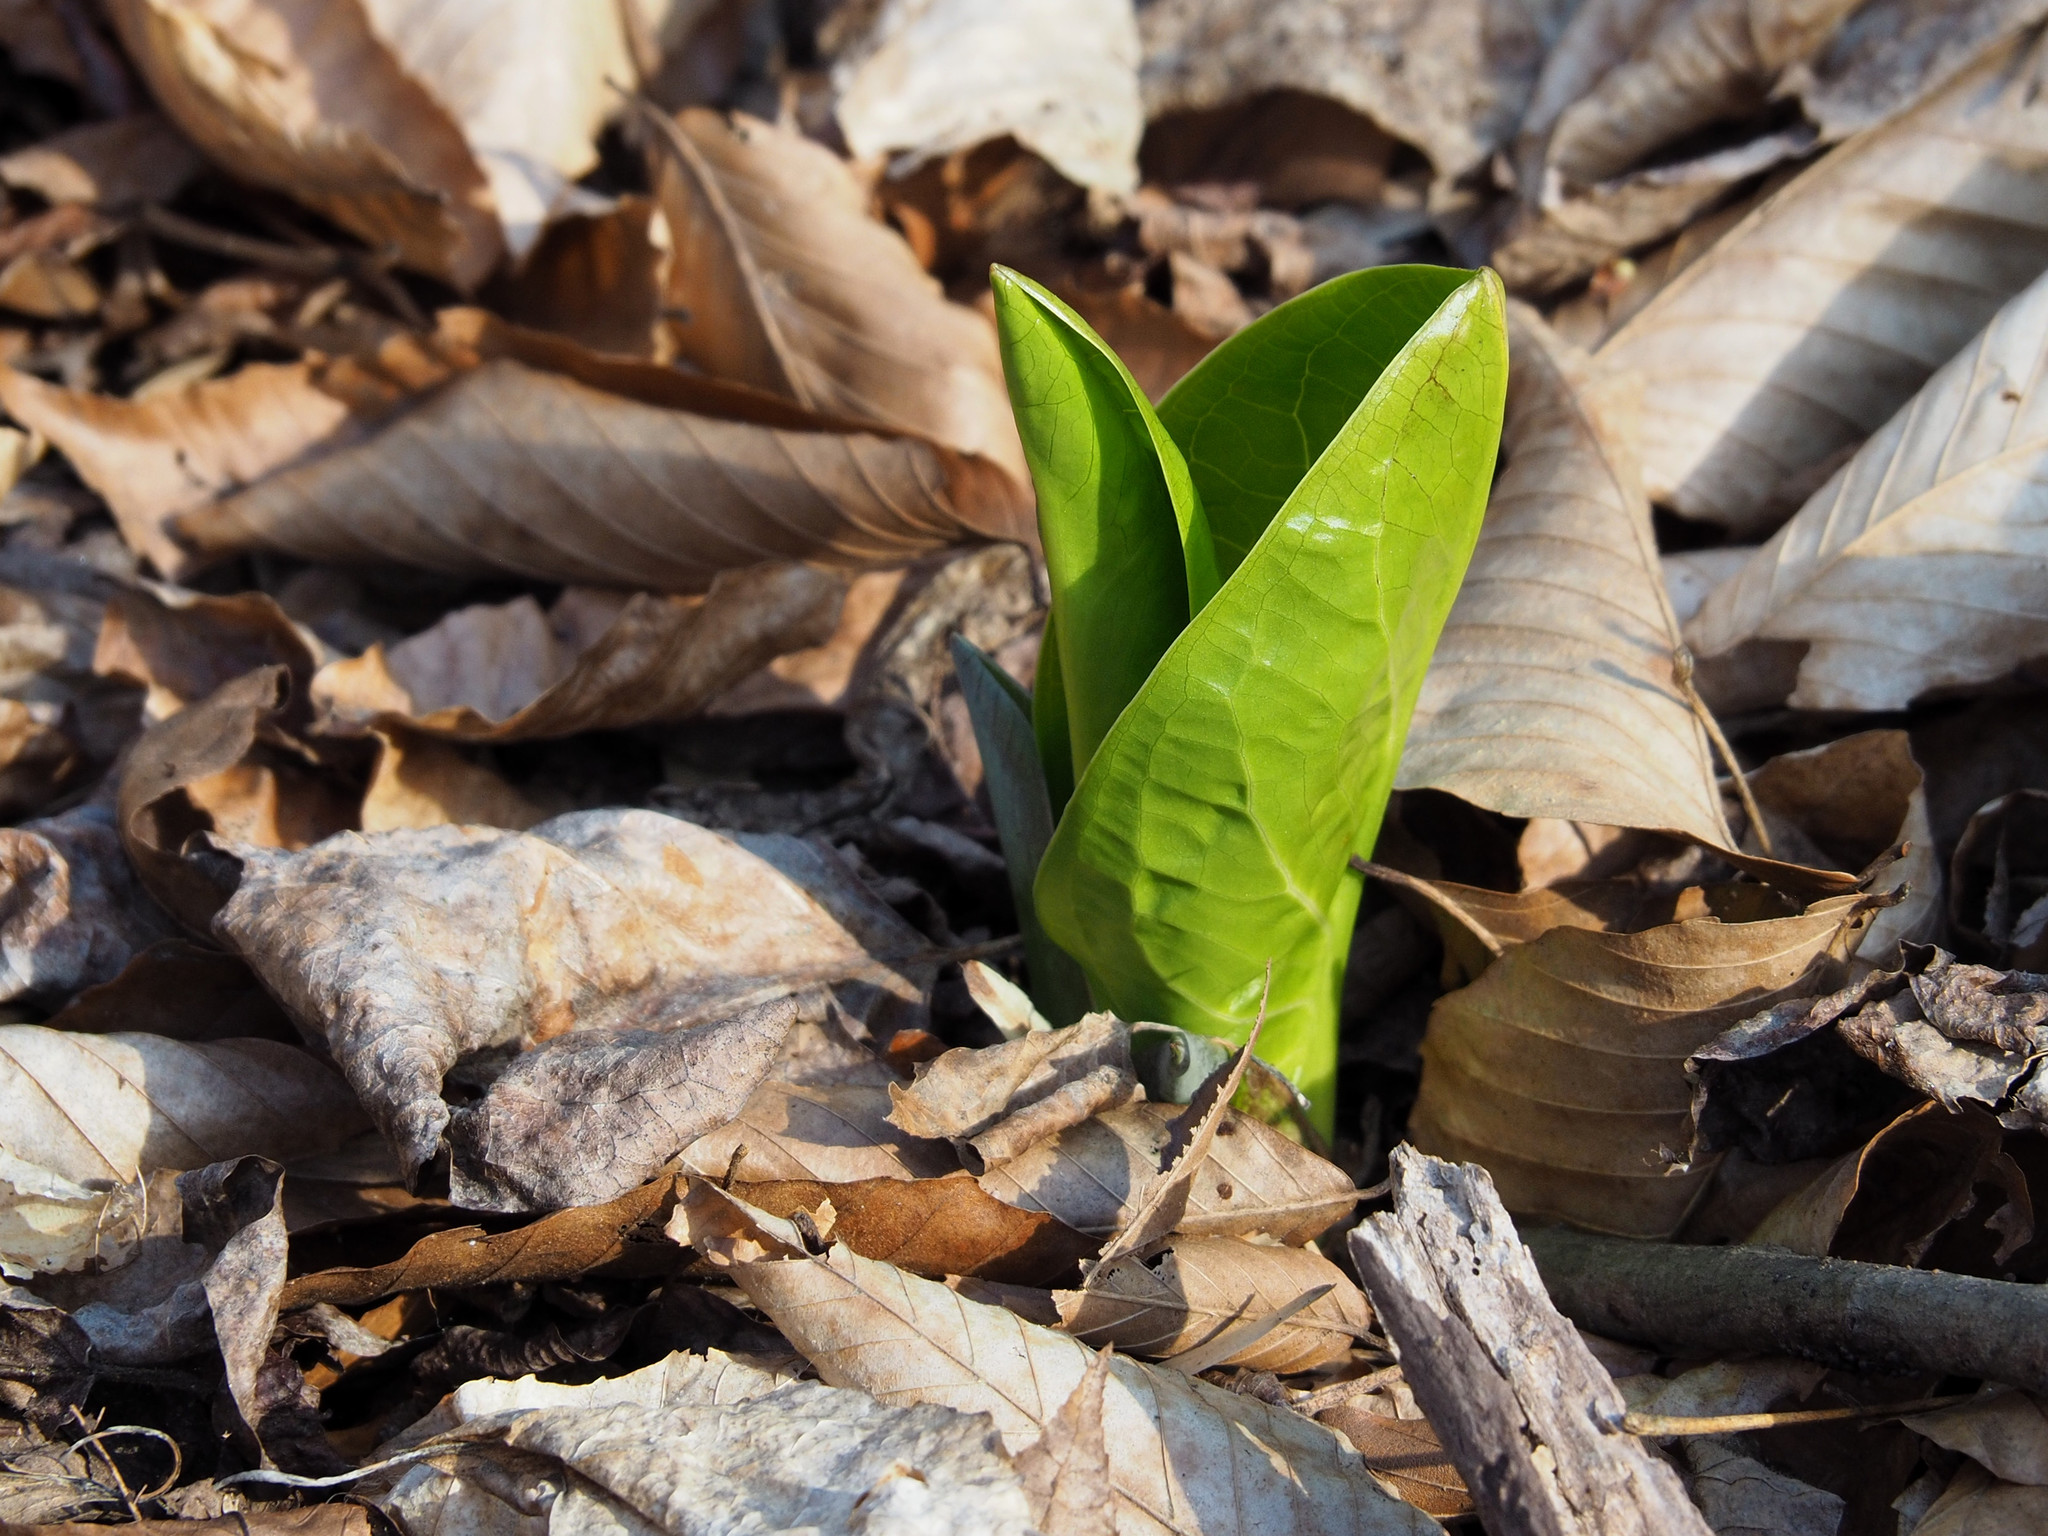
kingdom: Plantae
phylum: Tracheophyta
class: Liliopsida
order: Alismatales
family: Araceae
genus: Symplocarpus
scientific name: Symplocarpus foetidus
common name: Eastern skunk cabbage
